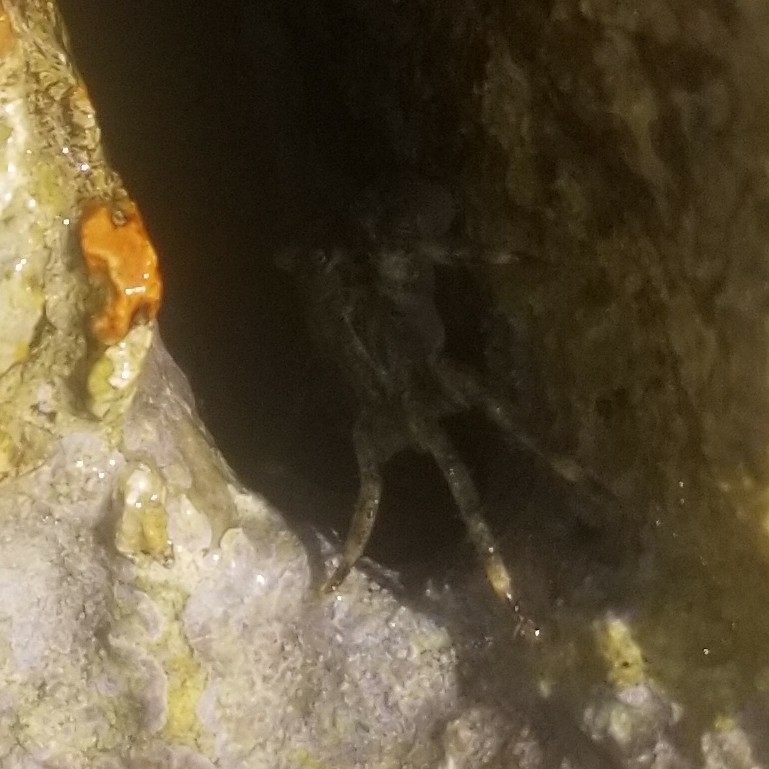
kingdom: Animalia
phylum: Arthropoda
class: Malacostraca
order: Decapoda
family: Grapsidae
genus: Pachygrapsus
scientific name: Pachygrapsus marmoratus
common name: Marbled rock crab
